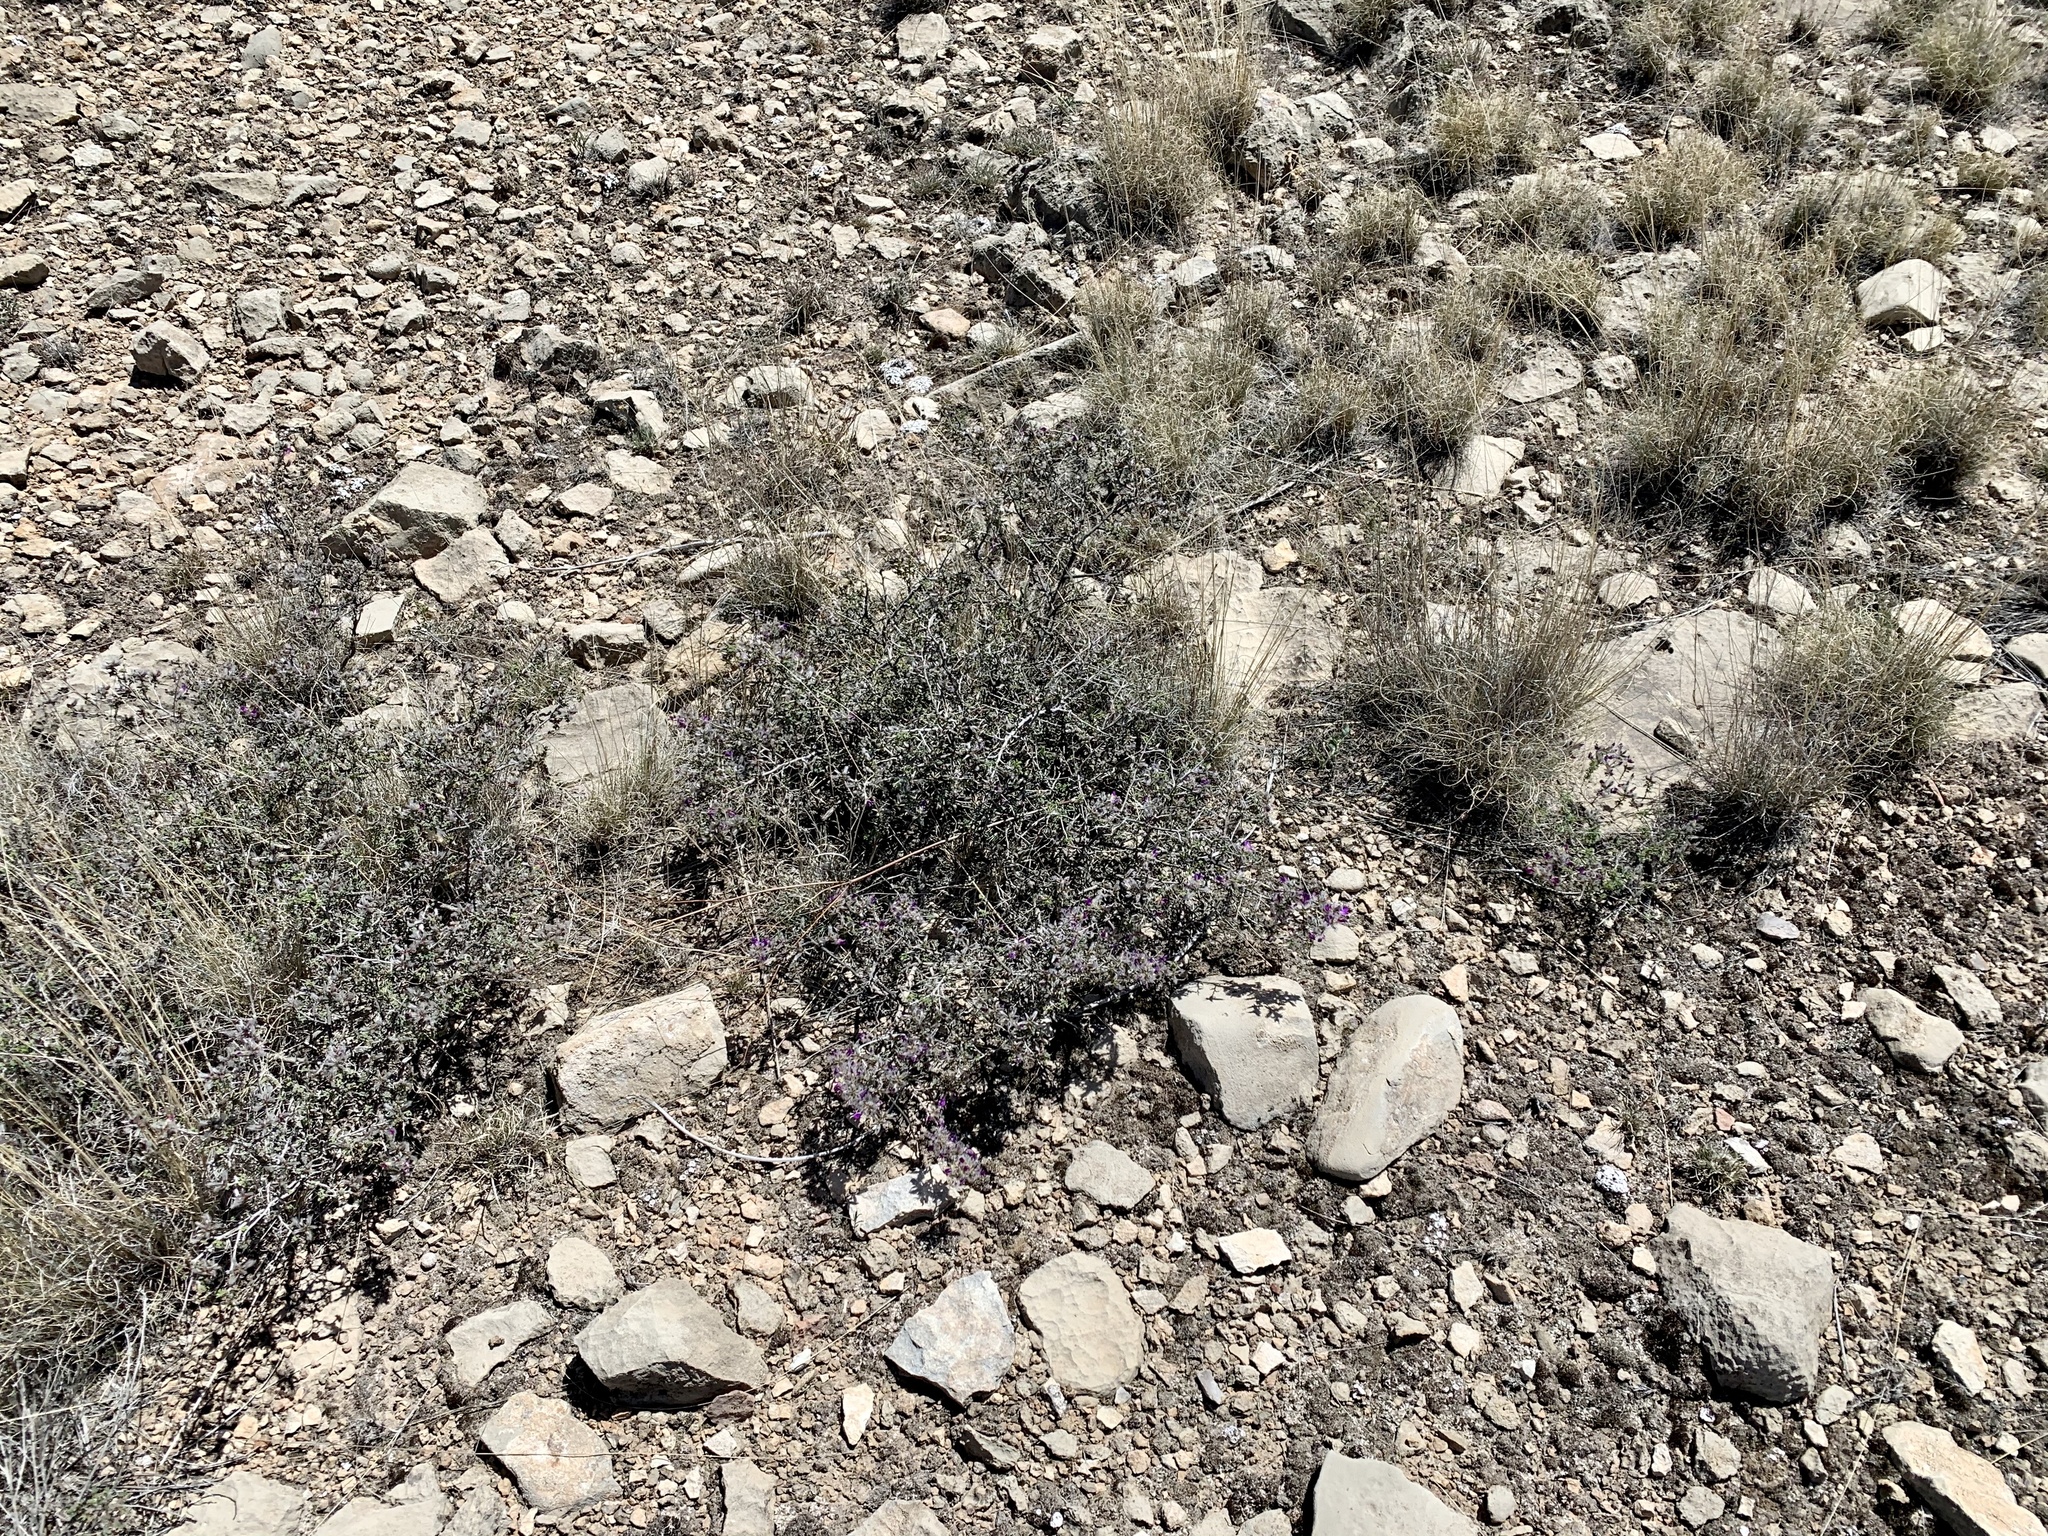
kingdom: Plantae
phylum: Tracheophyta
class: Magnoliopsida
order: Fabales
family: Fabaceae
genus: Dalea
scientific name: Dalea formosa
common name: Feather-plume dalea
